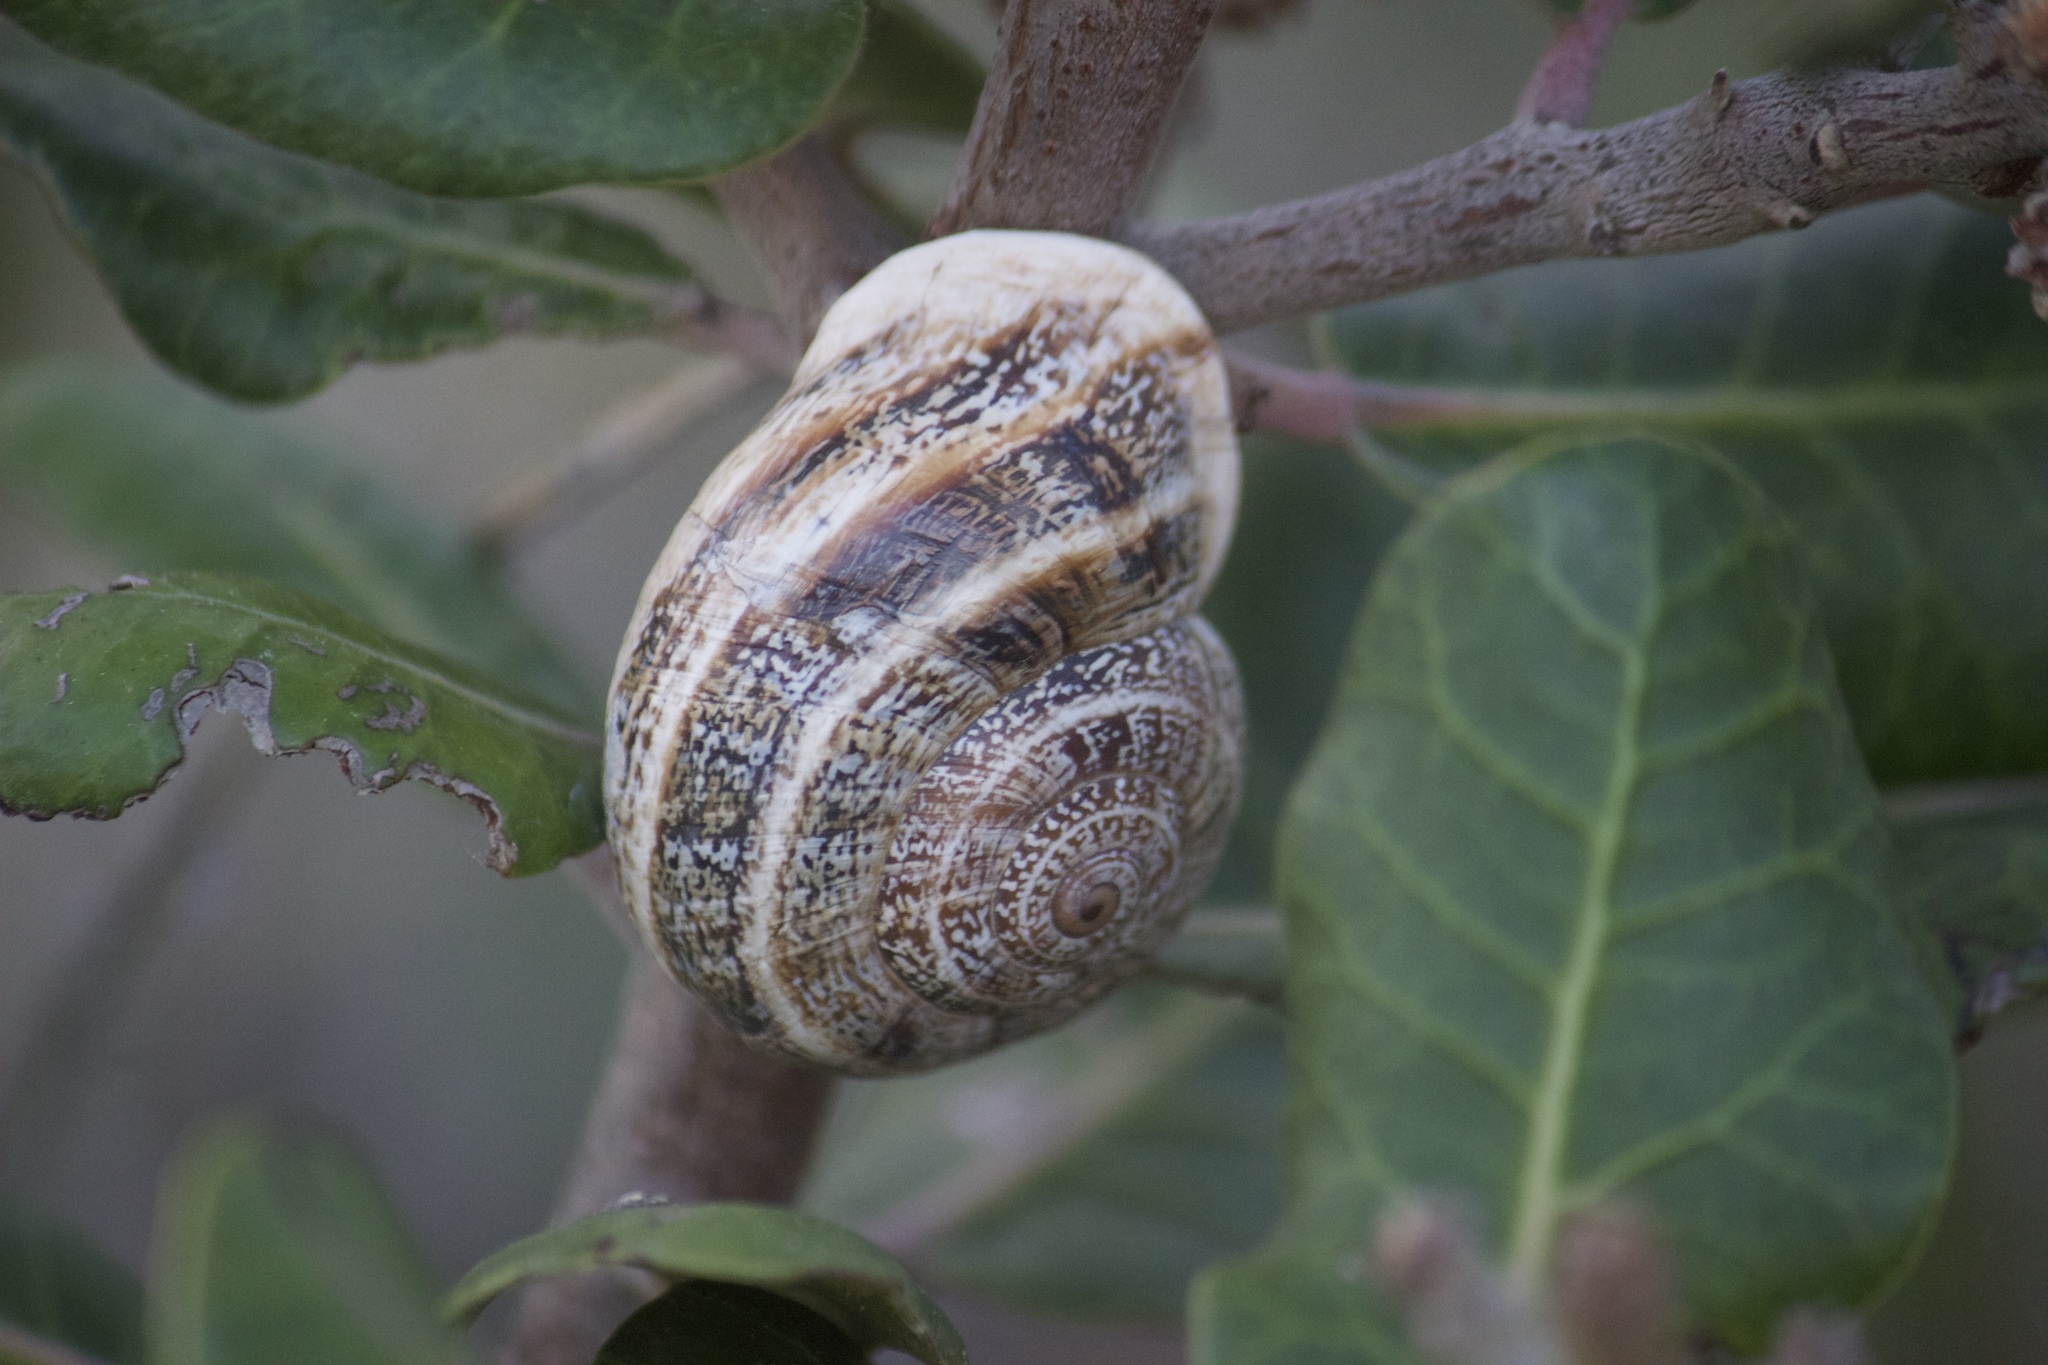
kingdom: Animalia
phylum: Mollusca
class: Gastropoda
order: Stylommatophora
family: Helicidae
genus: Otala
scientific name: Otala lactea
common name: Milk snail
